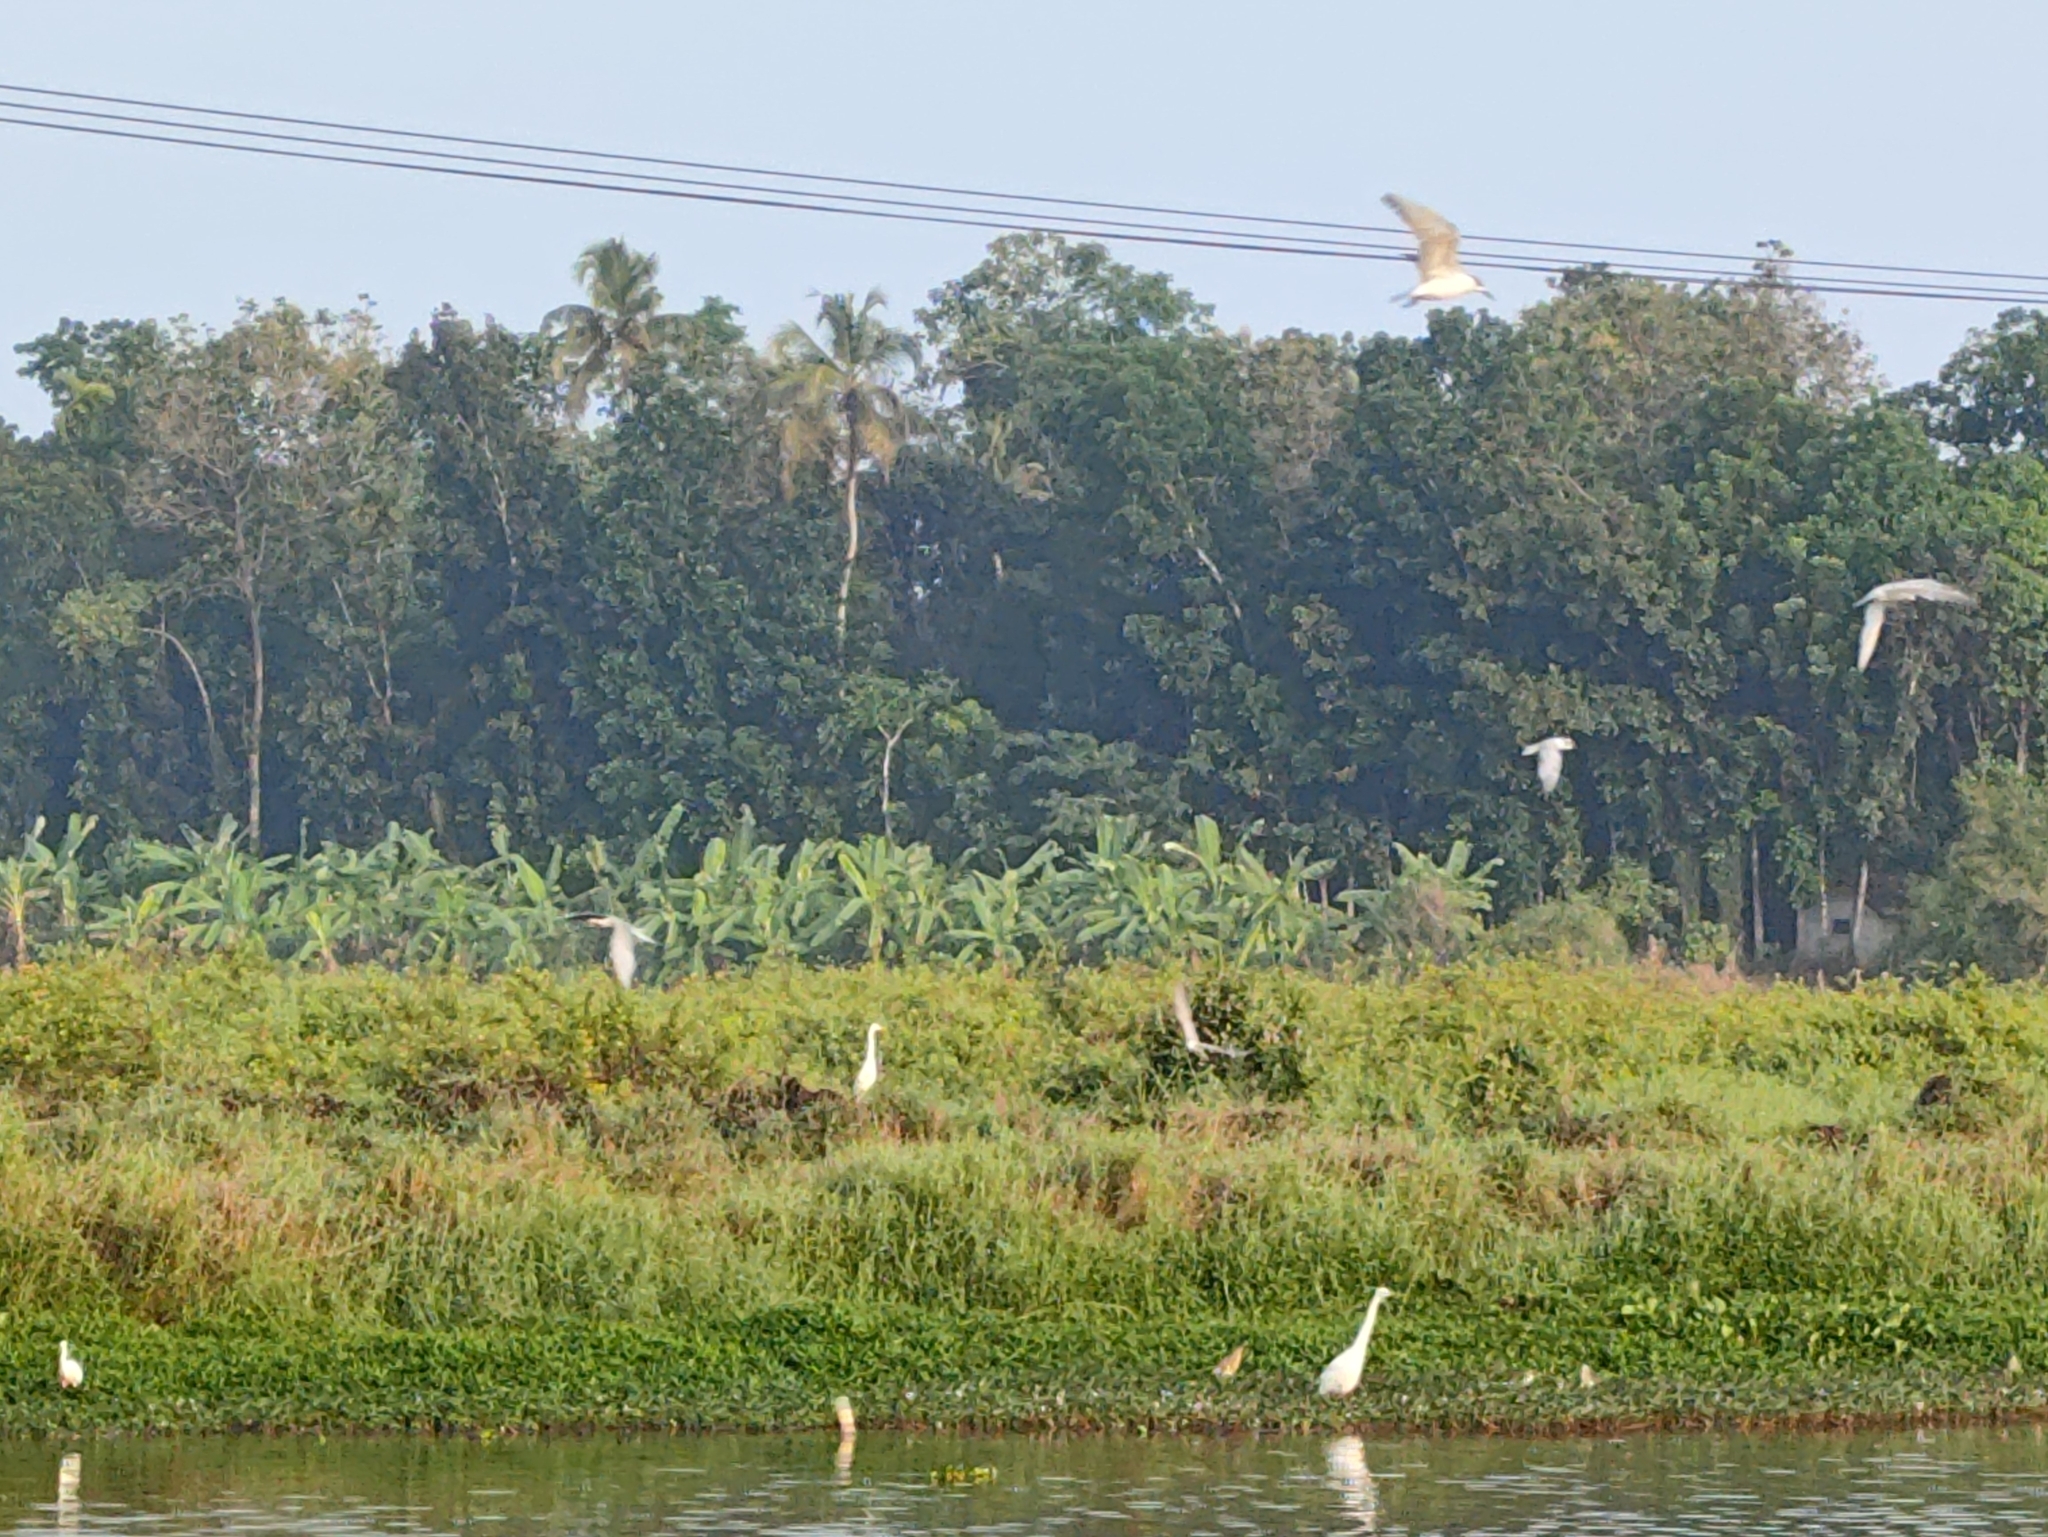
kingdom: Animalia
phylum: Chordata
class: Aves
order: Charadriiformes
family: Laridae
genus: Chlidonias
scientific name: Chlidonias hybrida
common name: Whiskered tern
